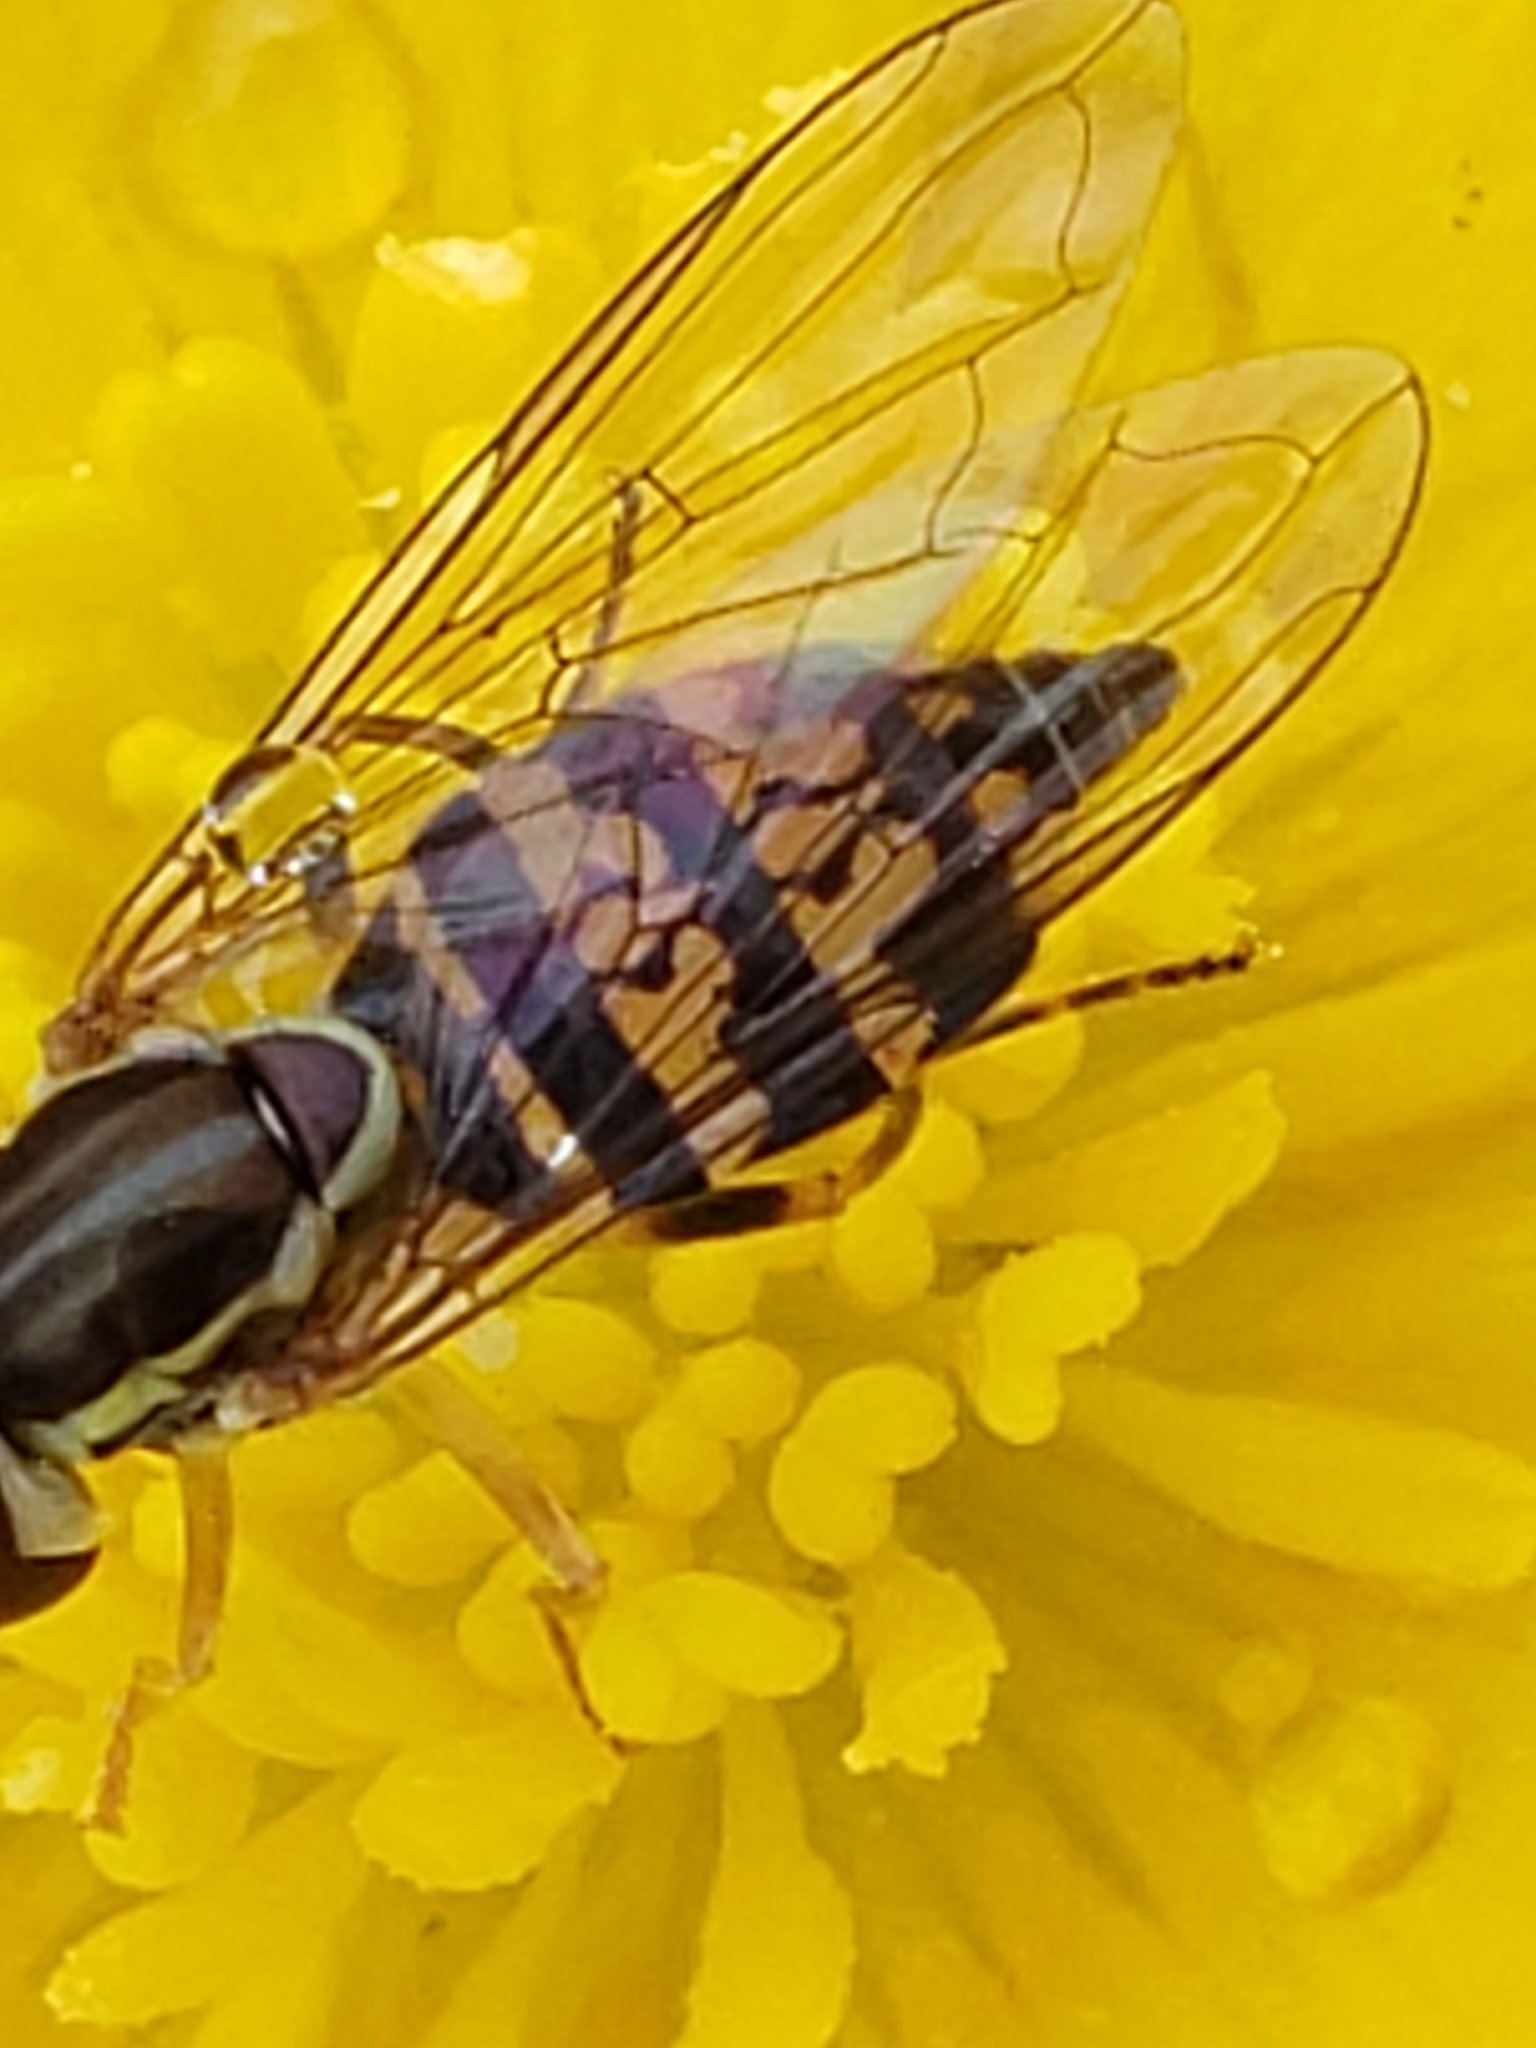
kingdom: Animalia
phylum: Arthropoda
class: Insecta
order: Diptera
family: Syrphidae
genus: Toxomerus
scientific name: Toxomerus geminatus
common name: Eastern calligrapher
